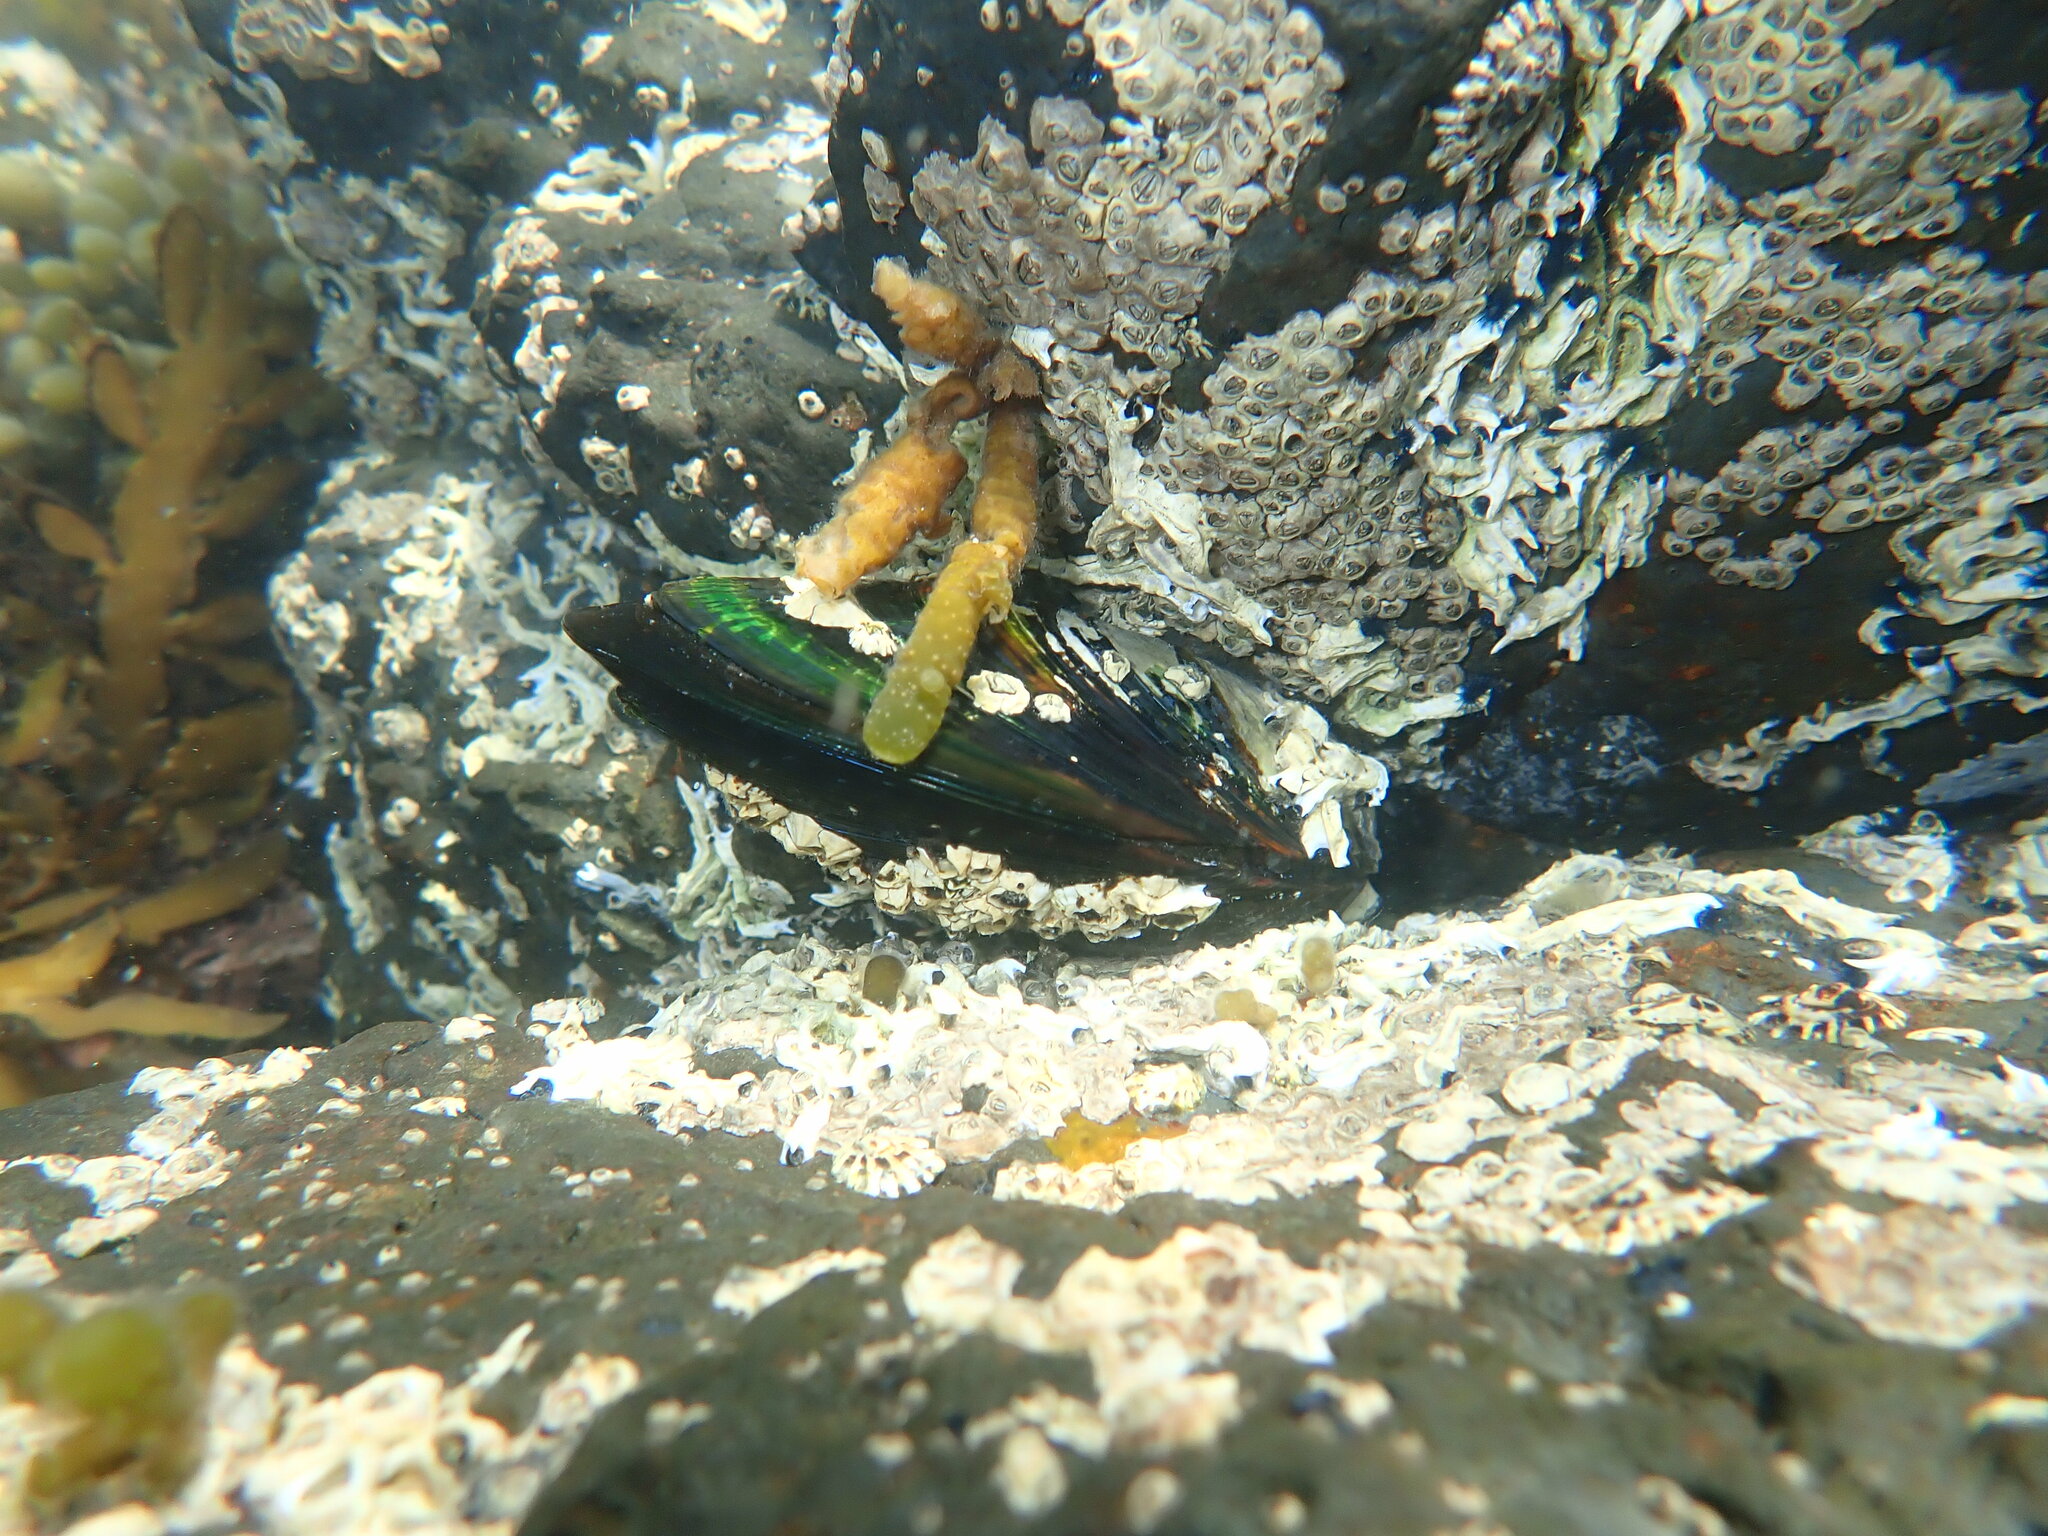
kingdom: Animalia
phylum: Mollusca
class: Bivalvia
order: Mytilida
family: Mytilidae
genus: Perna
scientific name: Perna canaliculus
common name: New zealand greenshelltm
